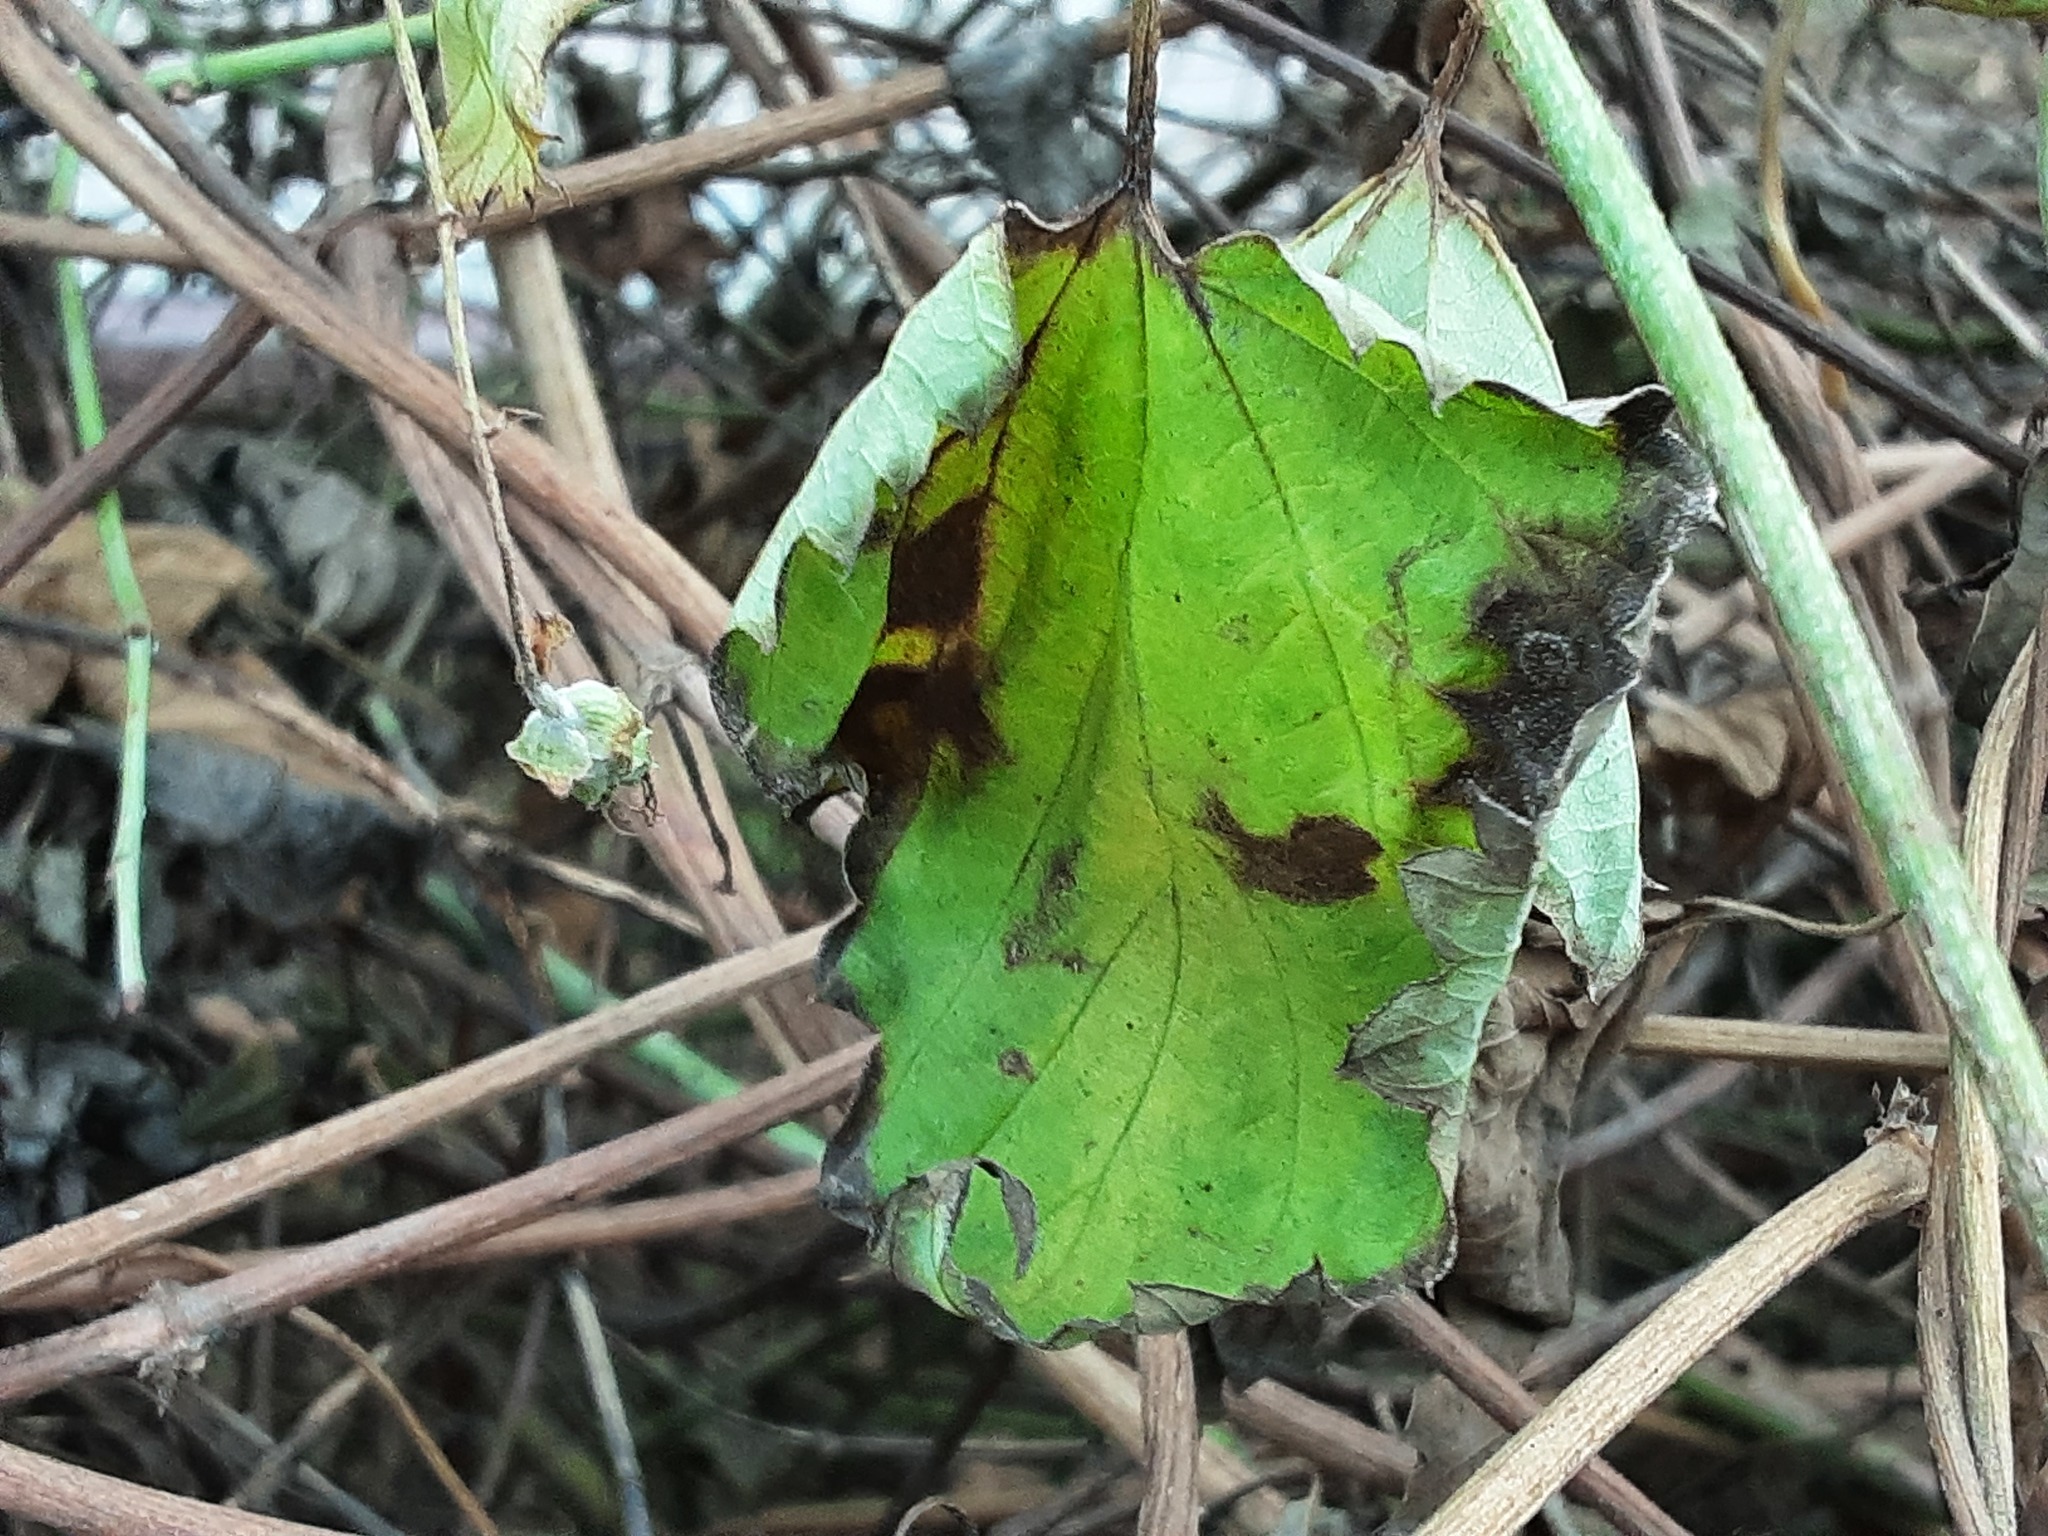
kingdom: Plantae
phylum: Tracheophyta
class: Magnoliopsida
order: Rosales
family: Cannabaceae
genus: Humulus
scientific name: Humulus lupulus
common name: Hop
